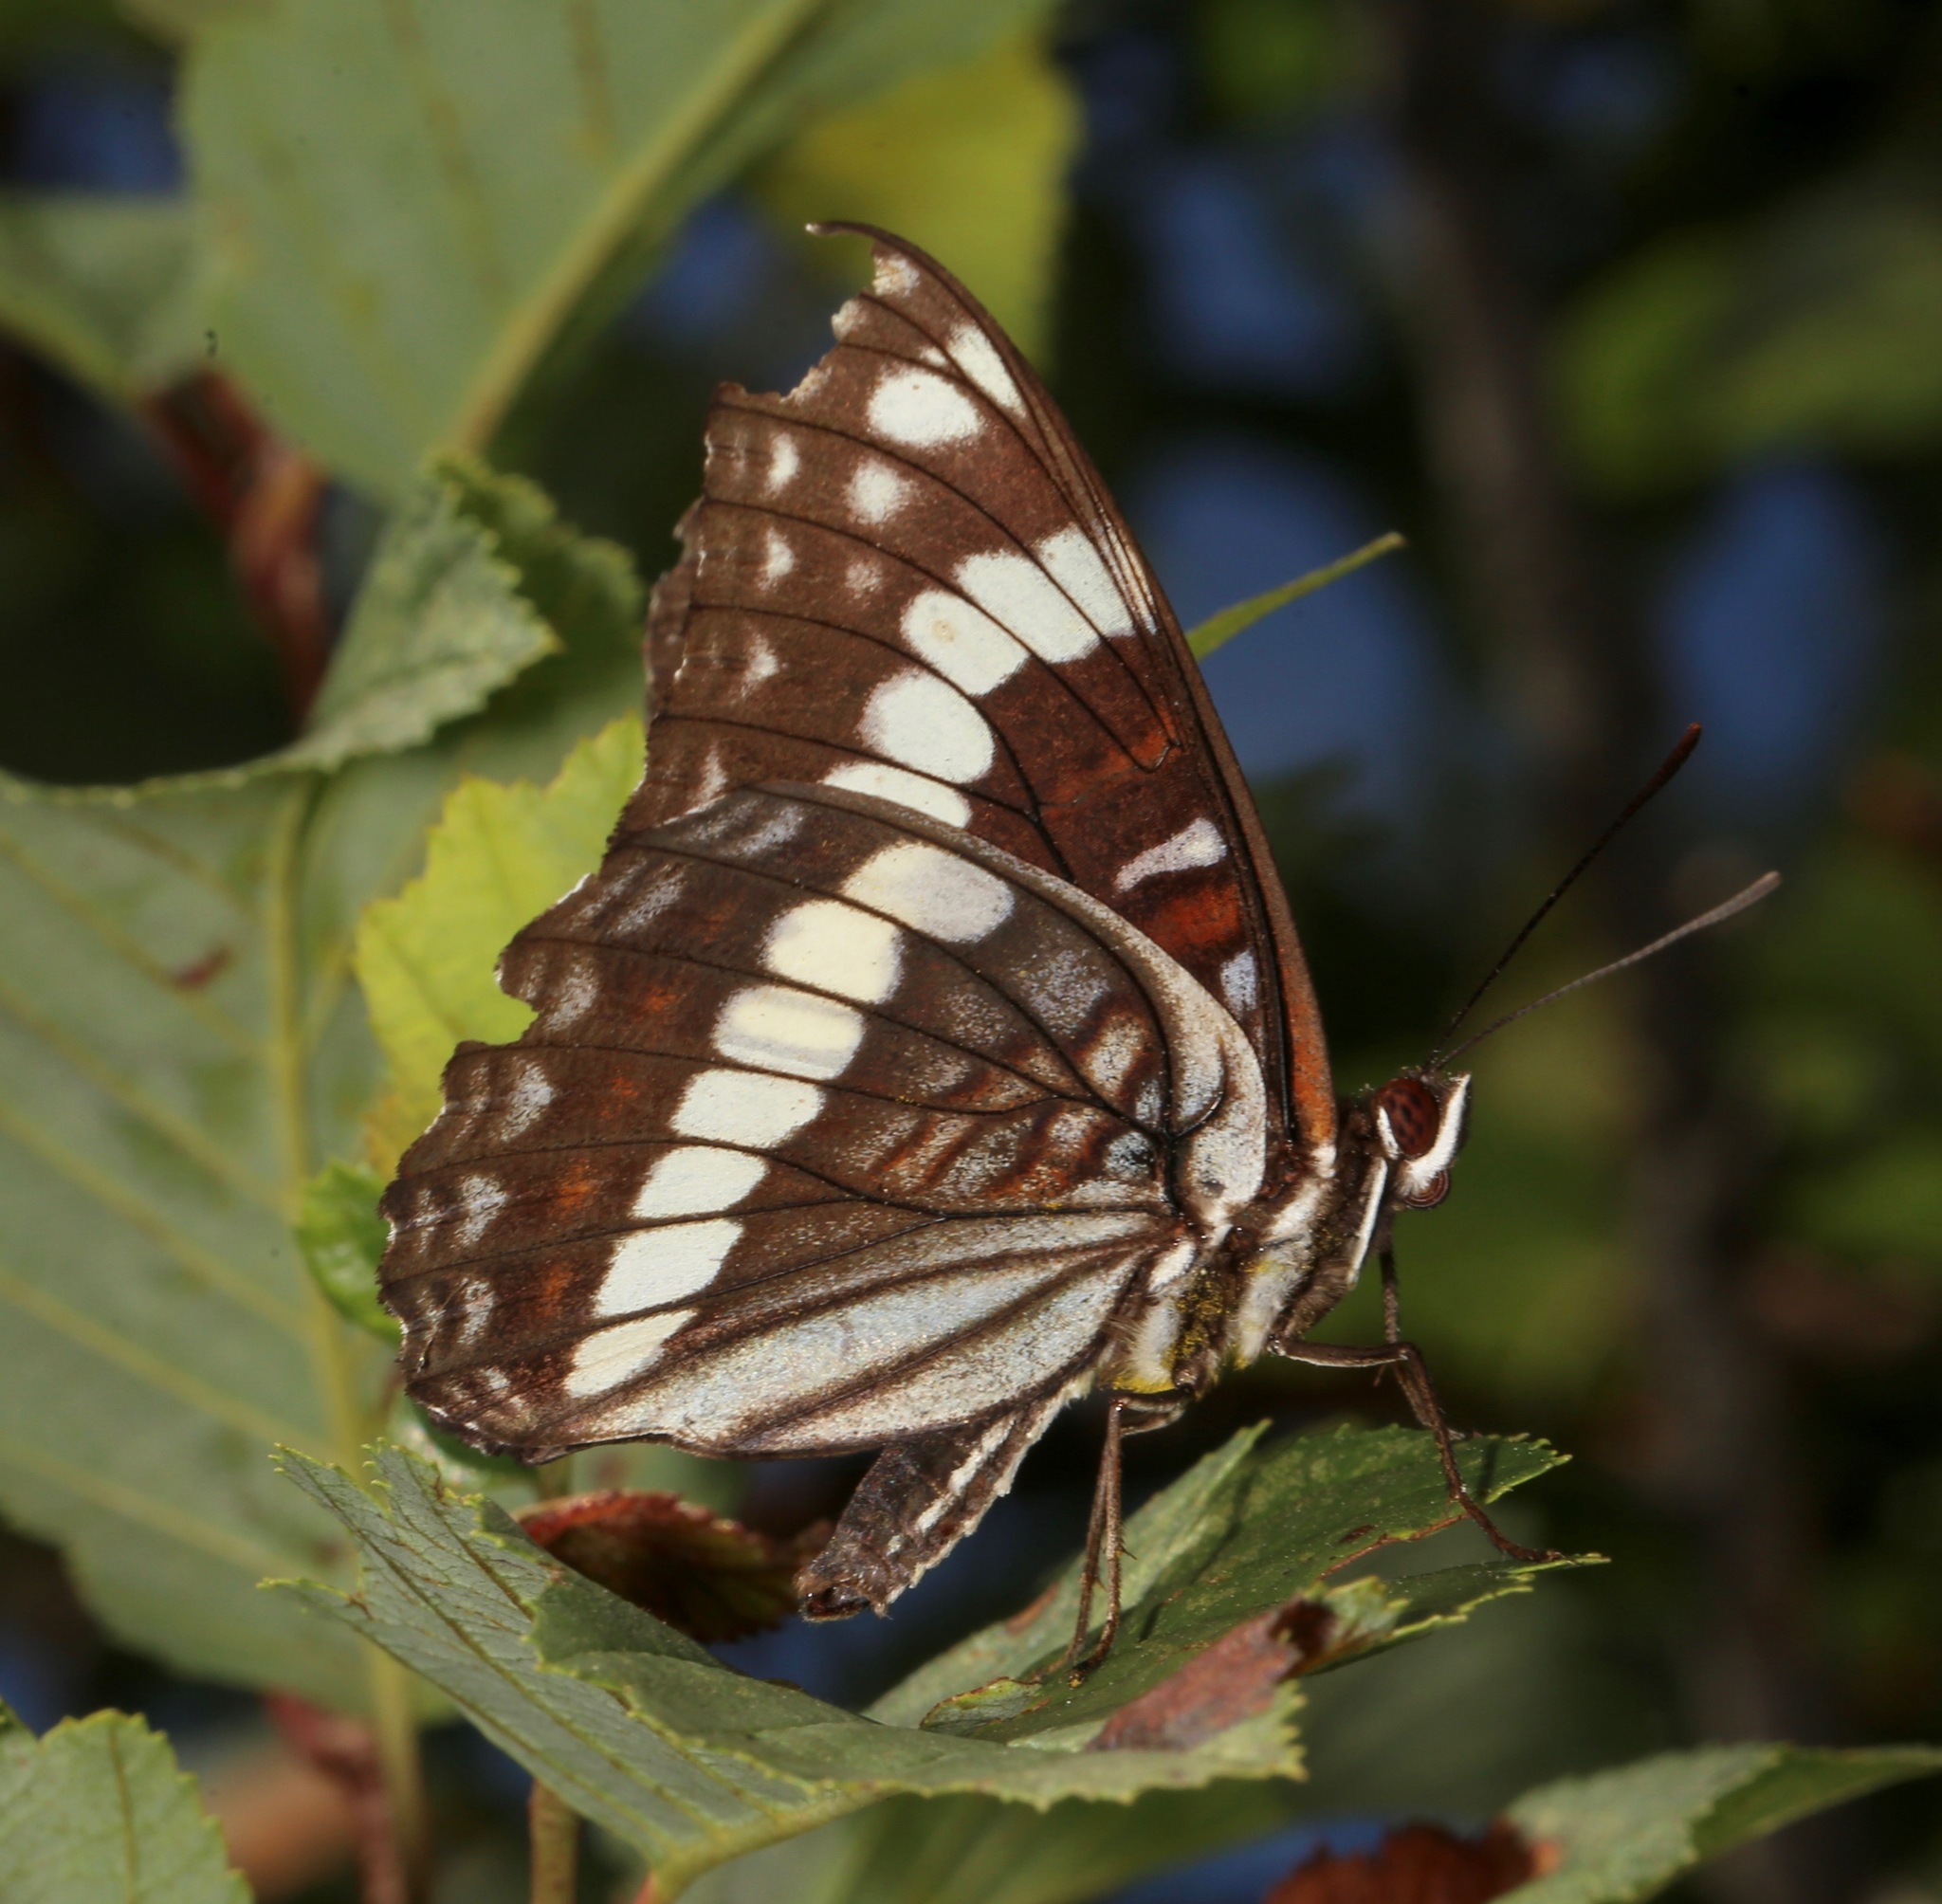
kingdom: Animalia
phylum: Arthropoda
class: Insecta
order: Lepidoptera
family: Nymphalidae
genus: Limenitis
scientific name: Limenitis weidemeyerii
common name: Weidemeyer's admiral
